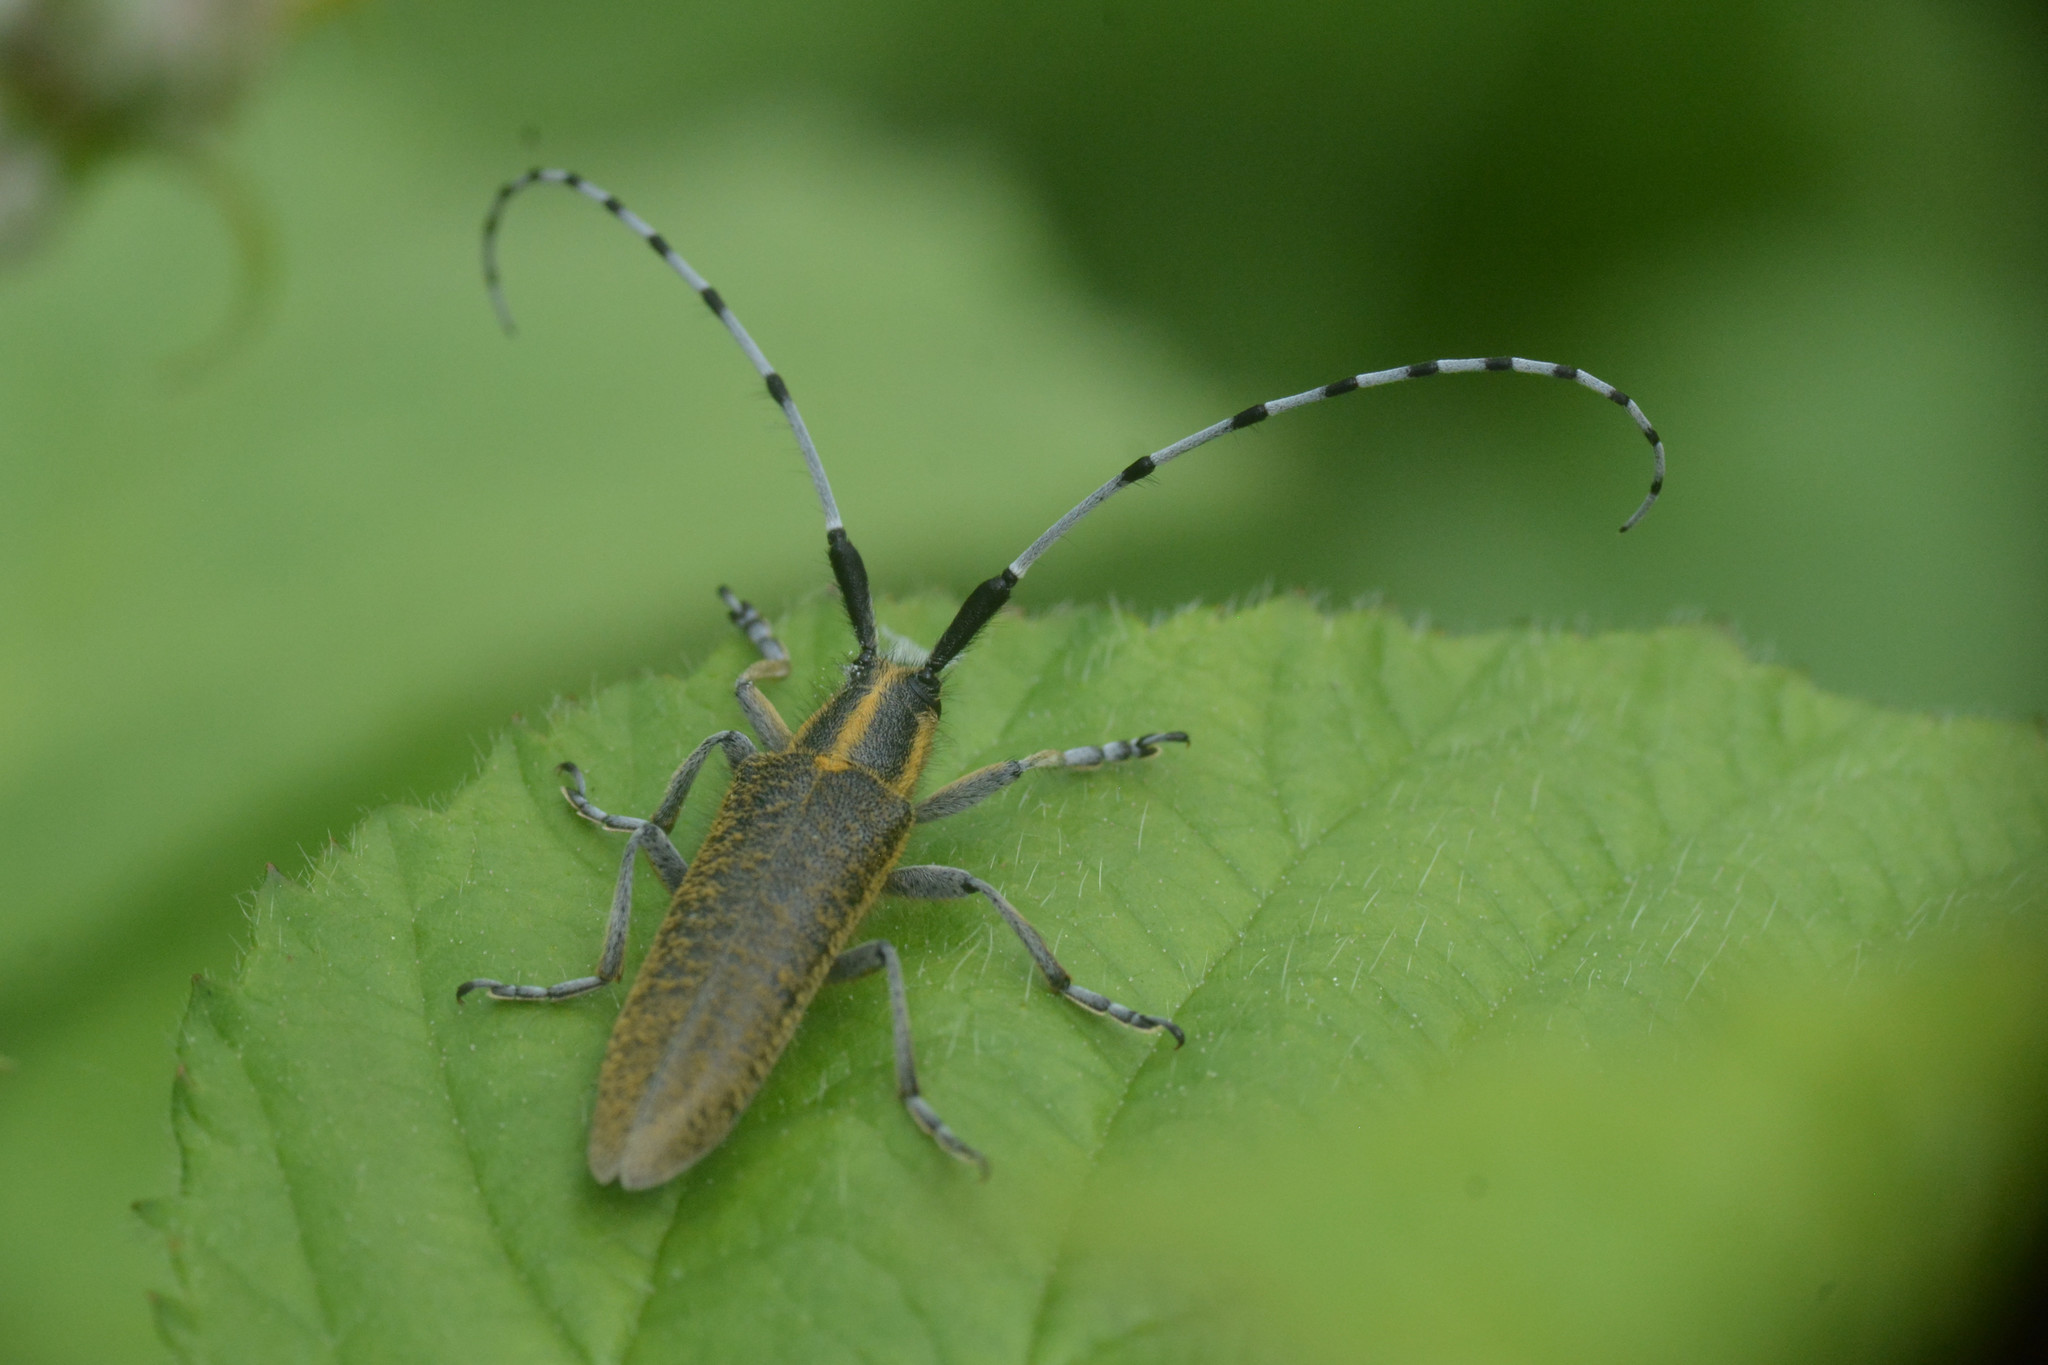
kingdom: Animalia
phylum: Arthropoda
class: Insecta
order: Coleoptera
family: Cerambycidae
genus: Agapanthia
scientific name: Agapanthia villosoviridescens
